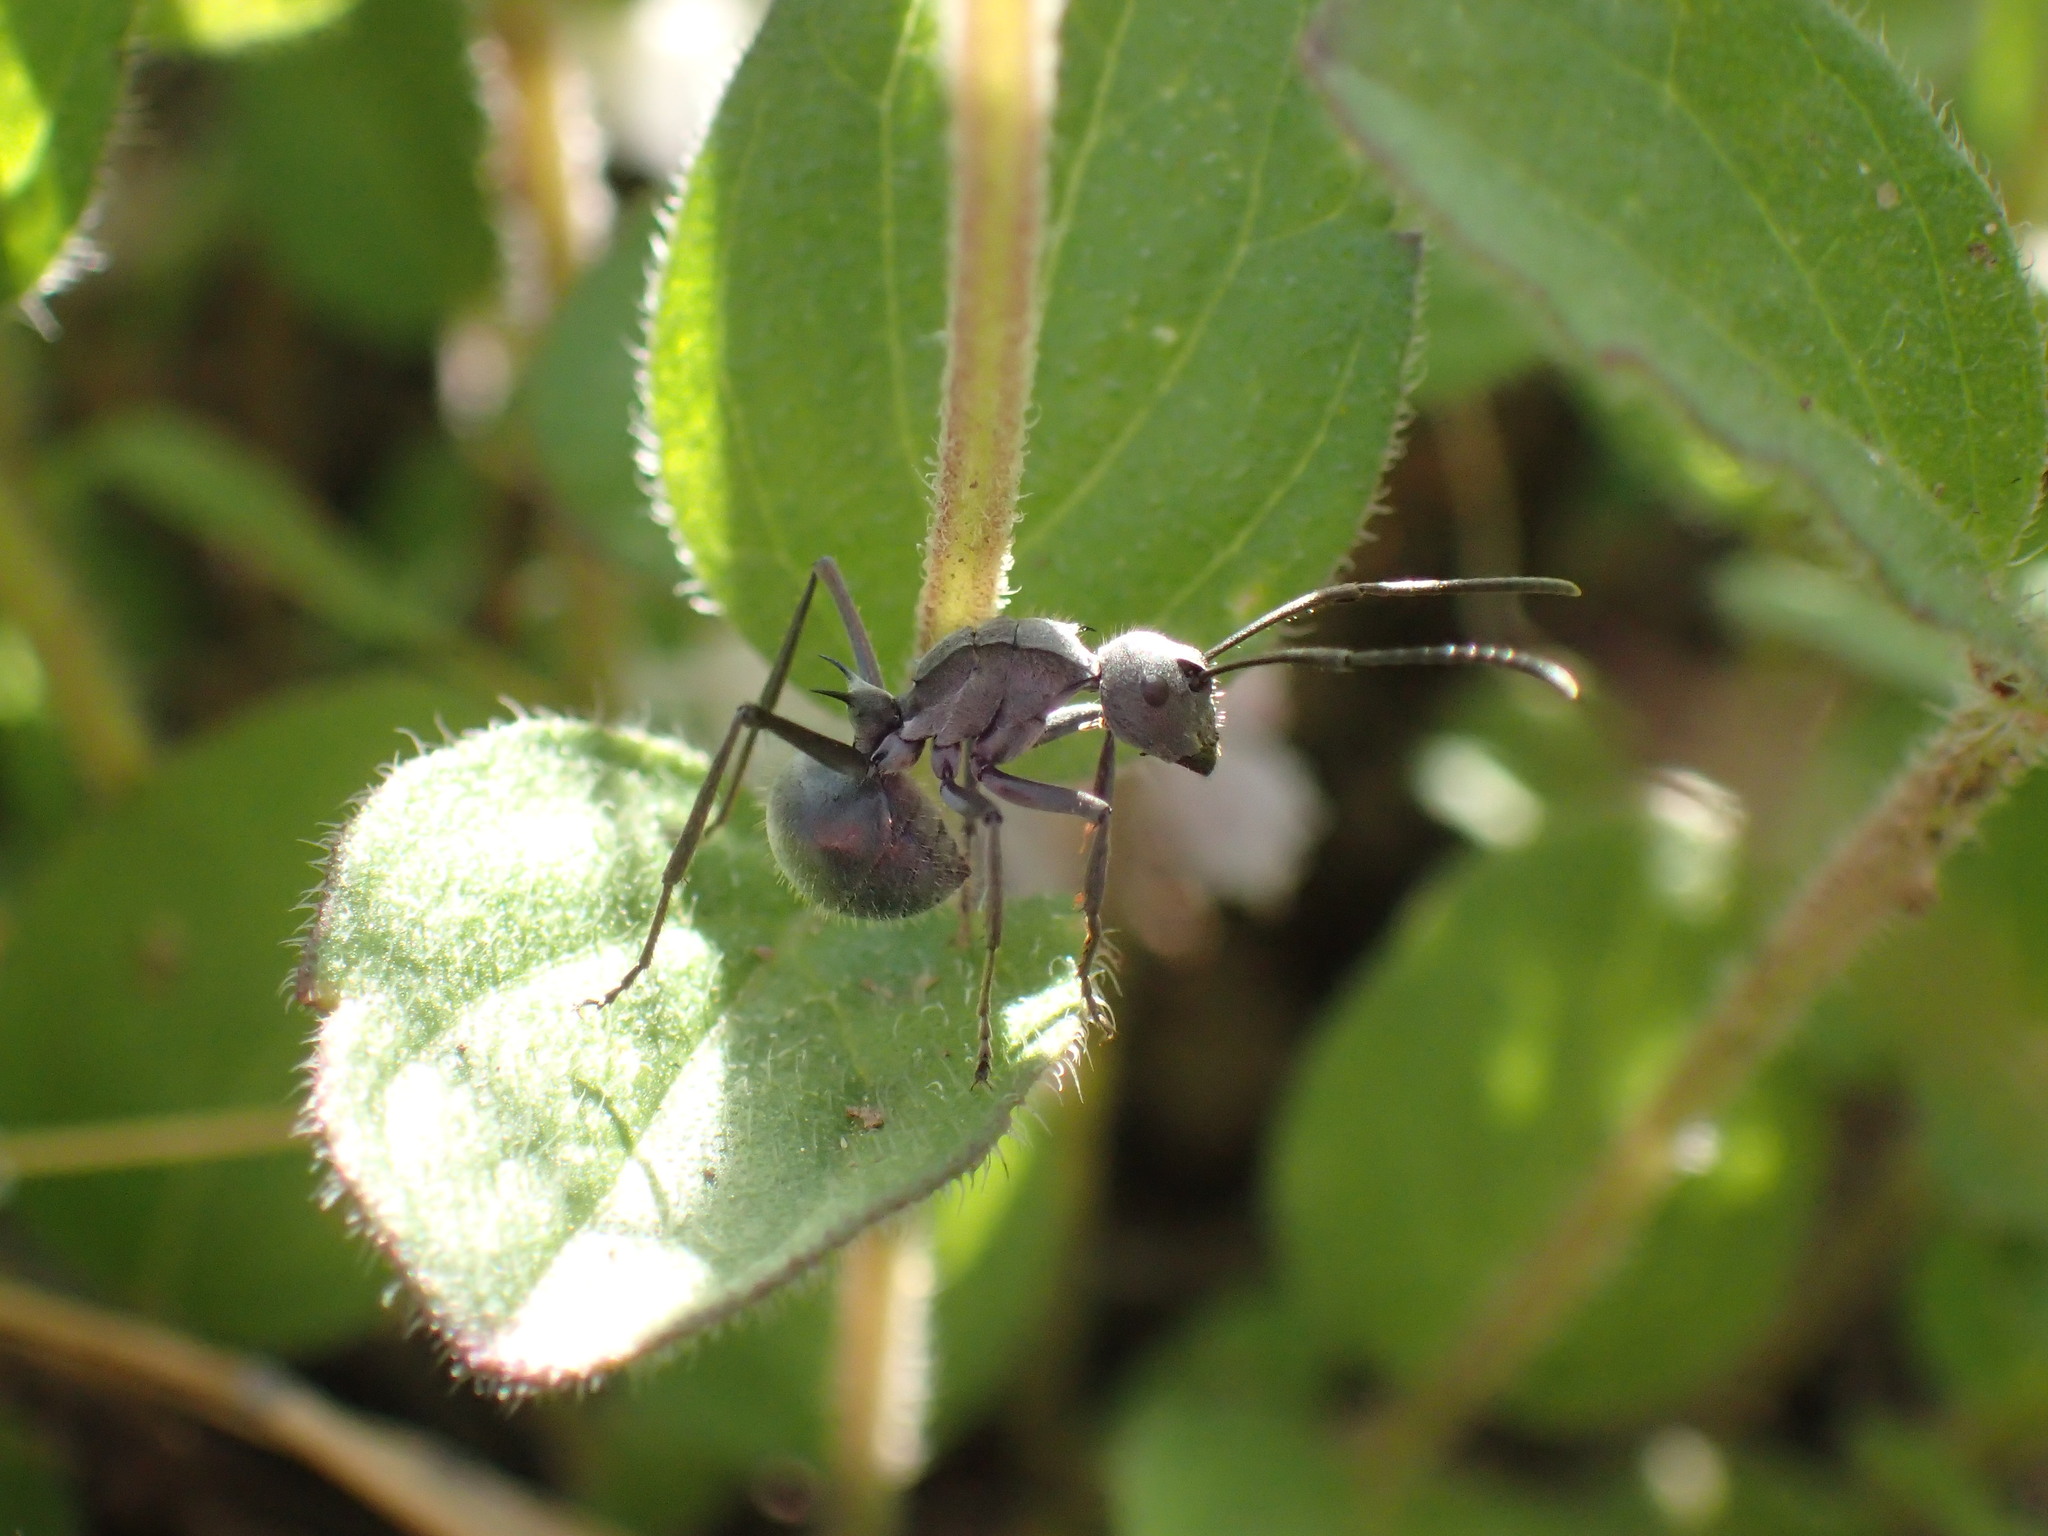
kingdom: Animalia
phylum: Arthropoda
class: Insecta
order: Hymenoptera
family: Formicidae
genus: Polyrhachis
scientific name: Polyrhachis schistacea
